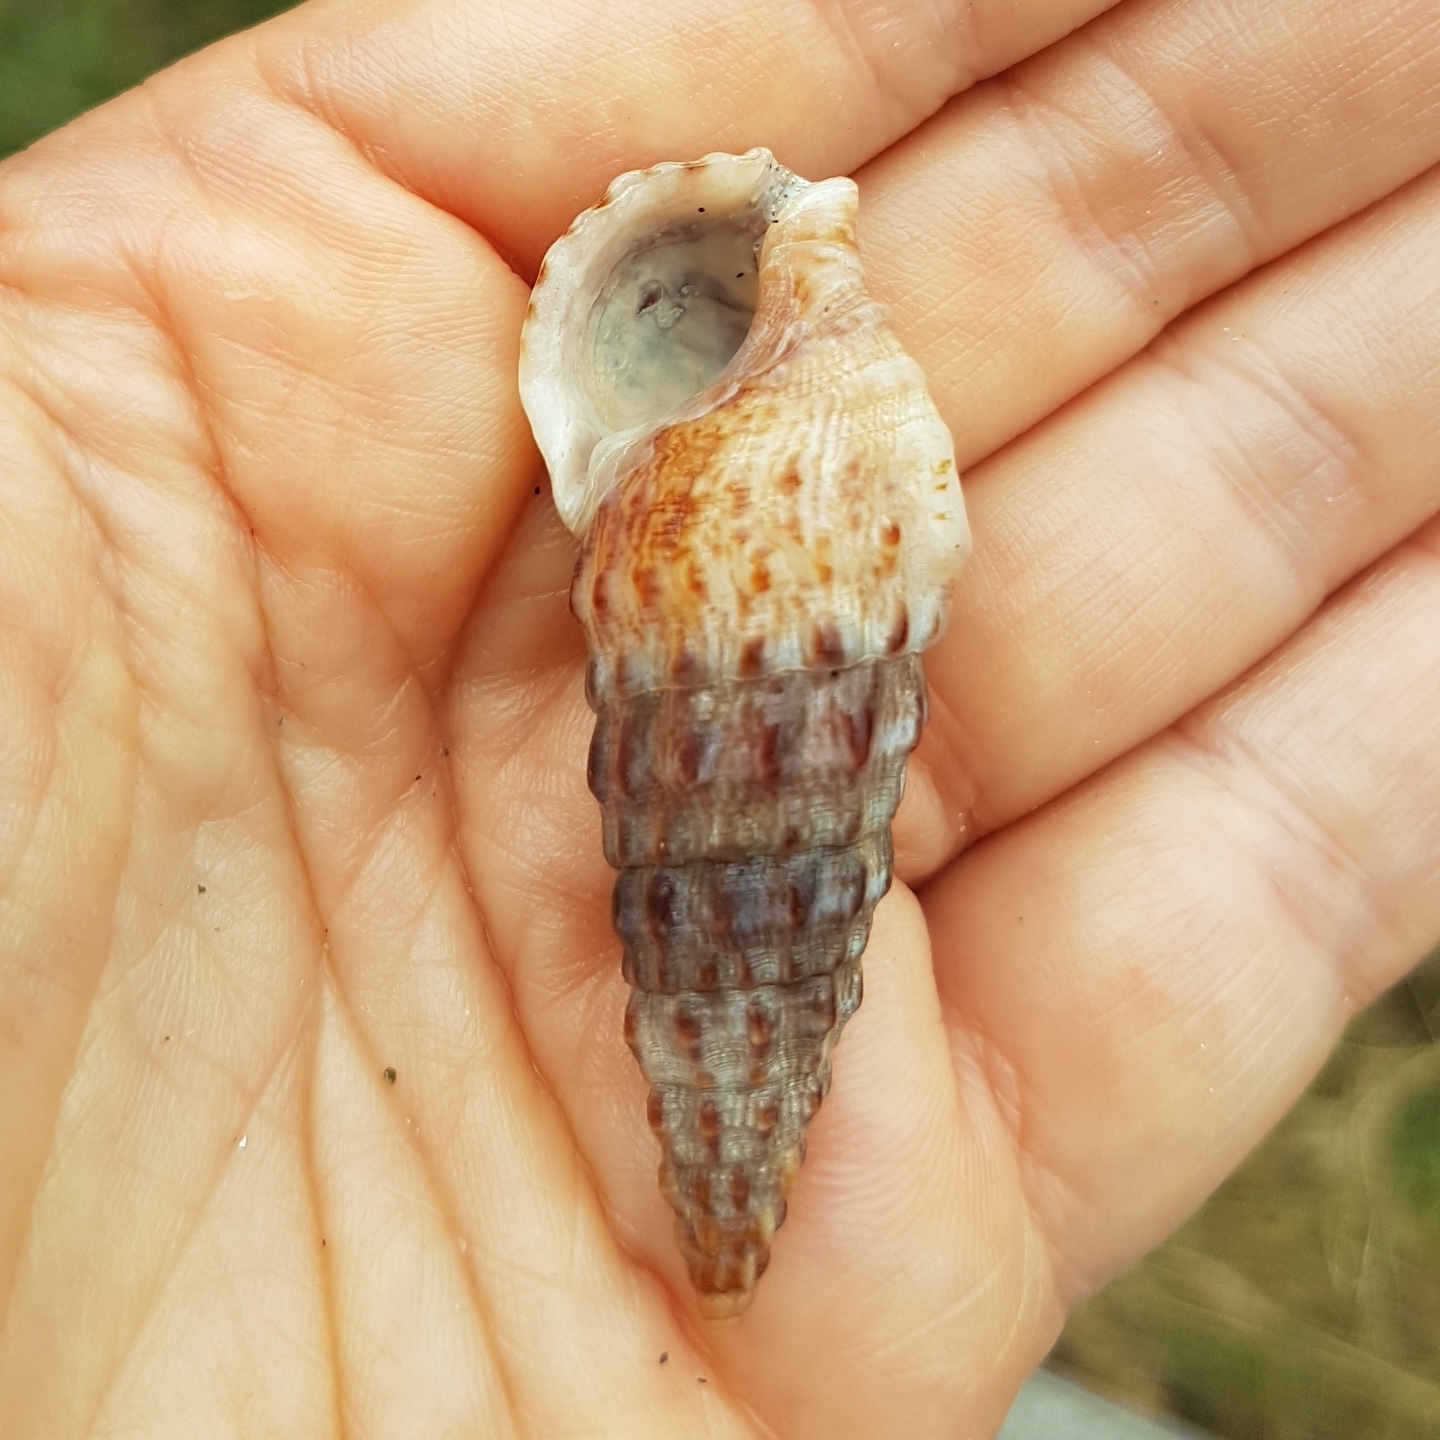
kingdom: Animalia
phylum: Mollusca
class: Gastropoda
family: Cerithiidae
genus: Cerithium
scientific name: Cerithium vulgatum
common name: European cerith
